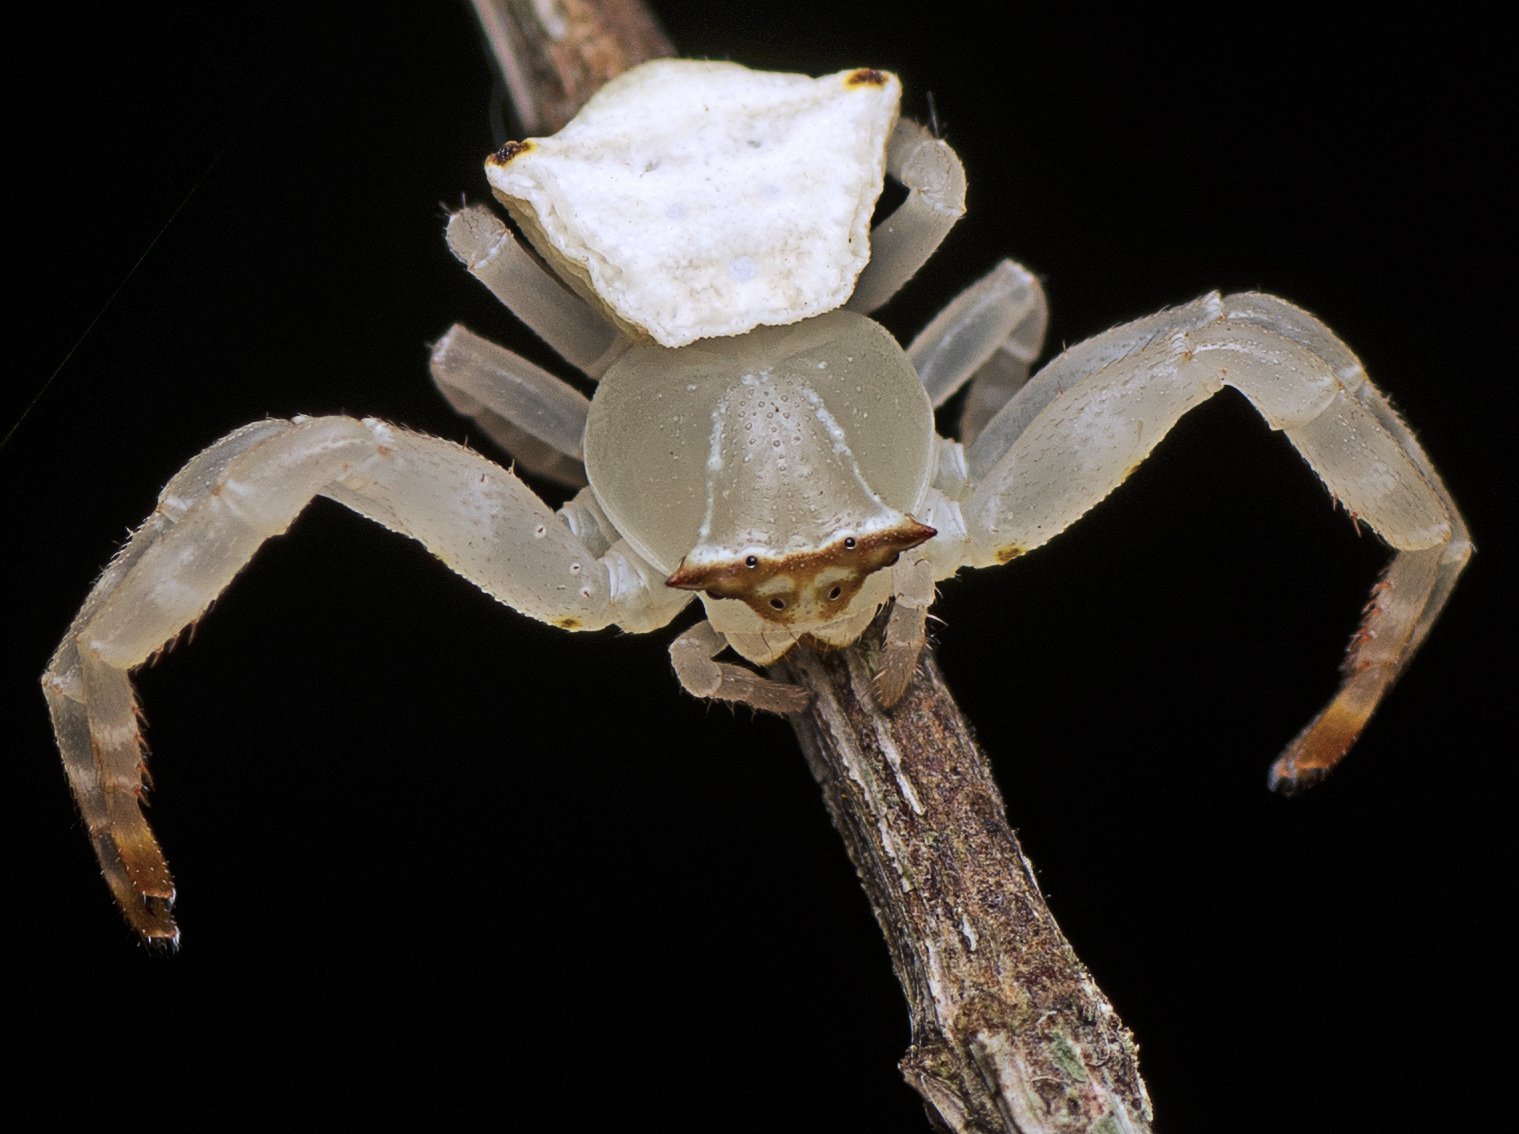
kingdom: Animalia
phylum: Arthropoda
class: Arachnida
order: Araneae
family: Thomisidae
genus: Thomisus
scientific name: Thomisus spectabilis
